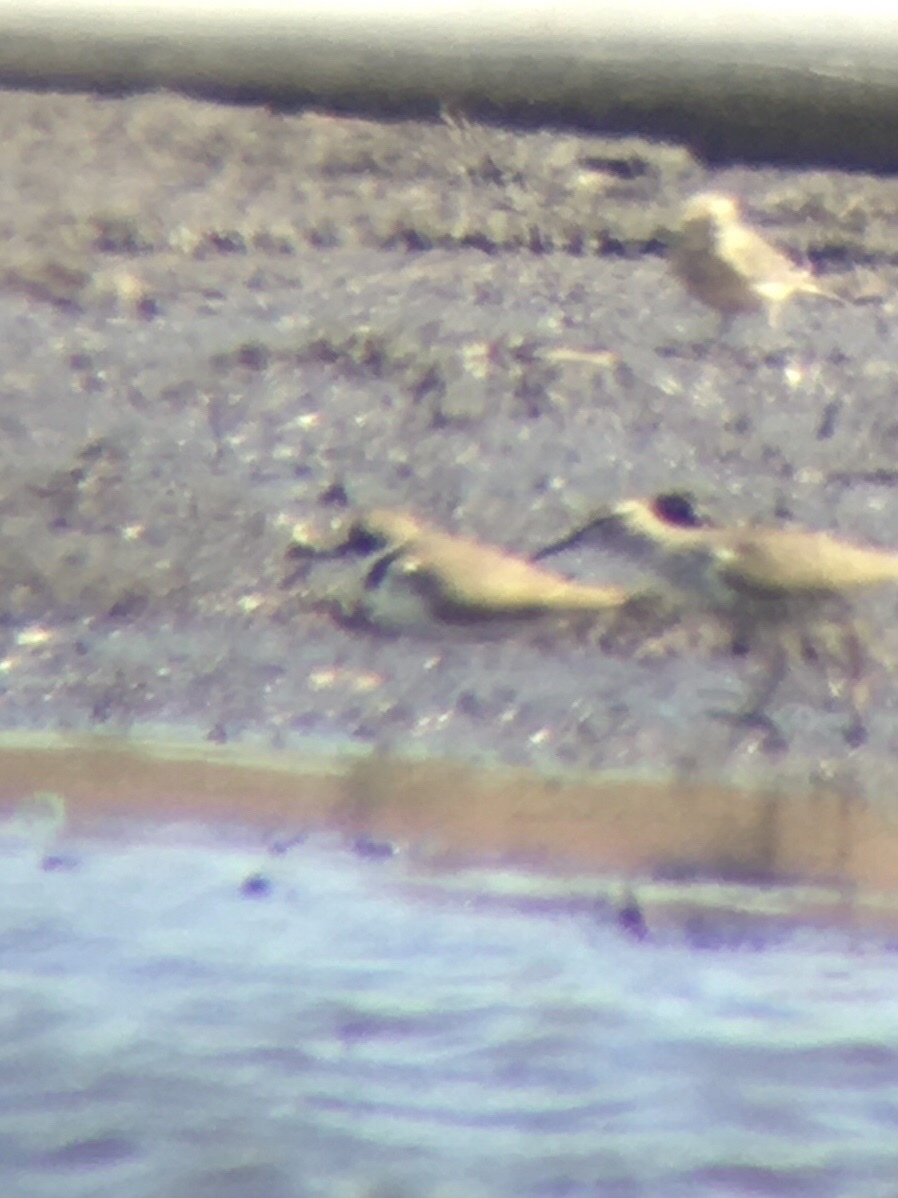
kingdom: Animalia
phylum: Chordata
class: Aves
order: Charadriiformes
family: Charadriidae
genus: Charadrius
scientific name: Charadrius semipalmatus
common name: Semipalmated plover
